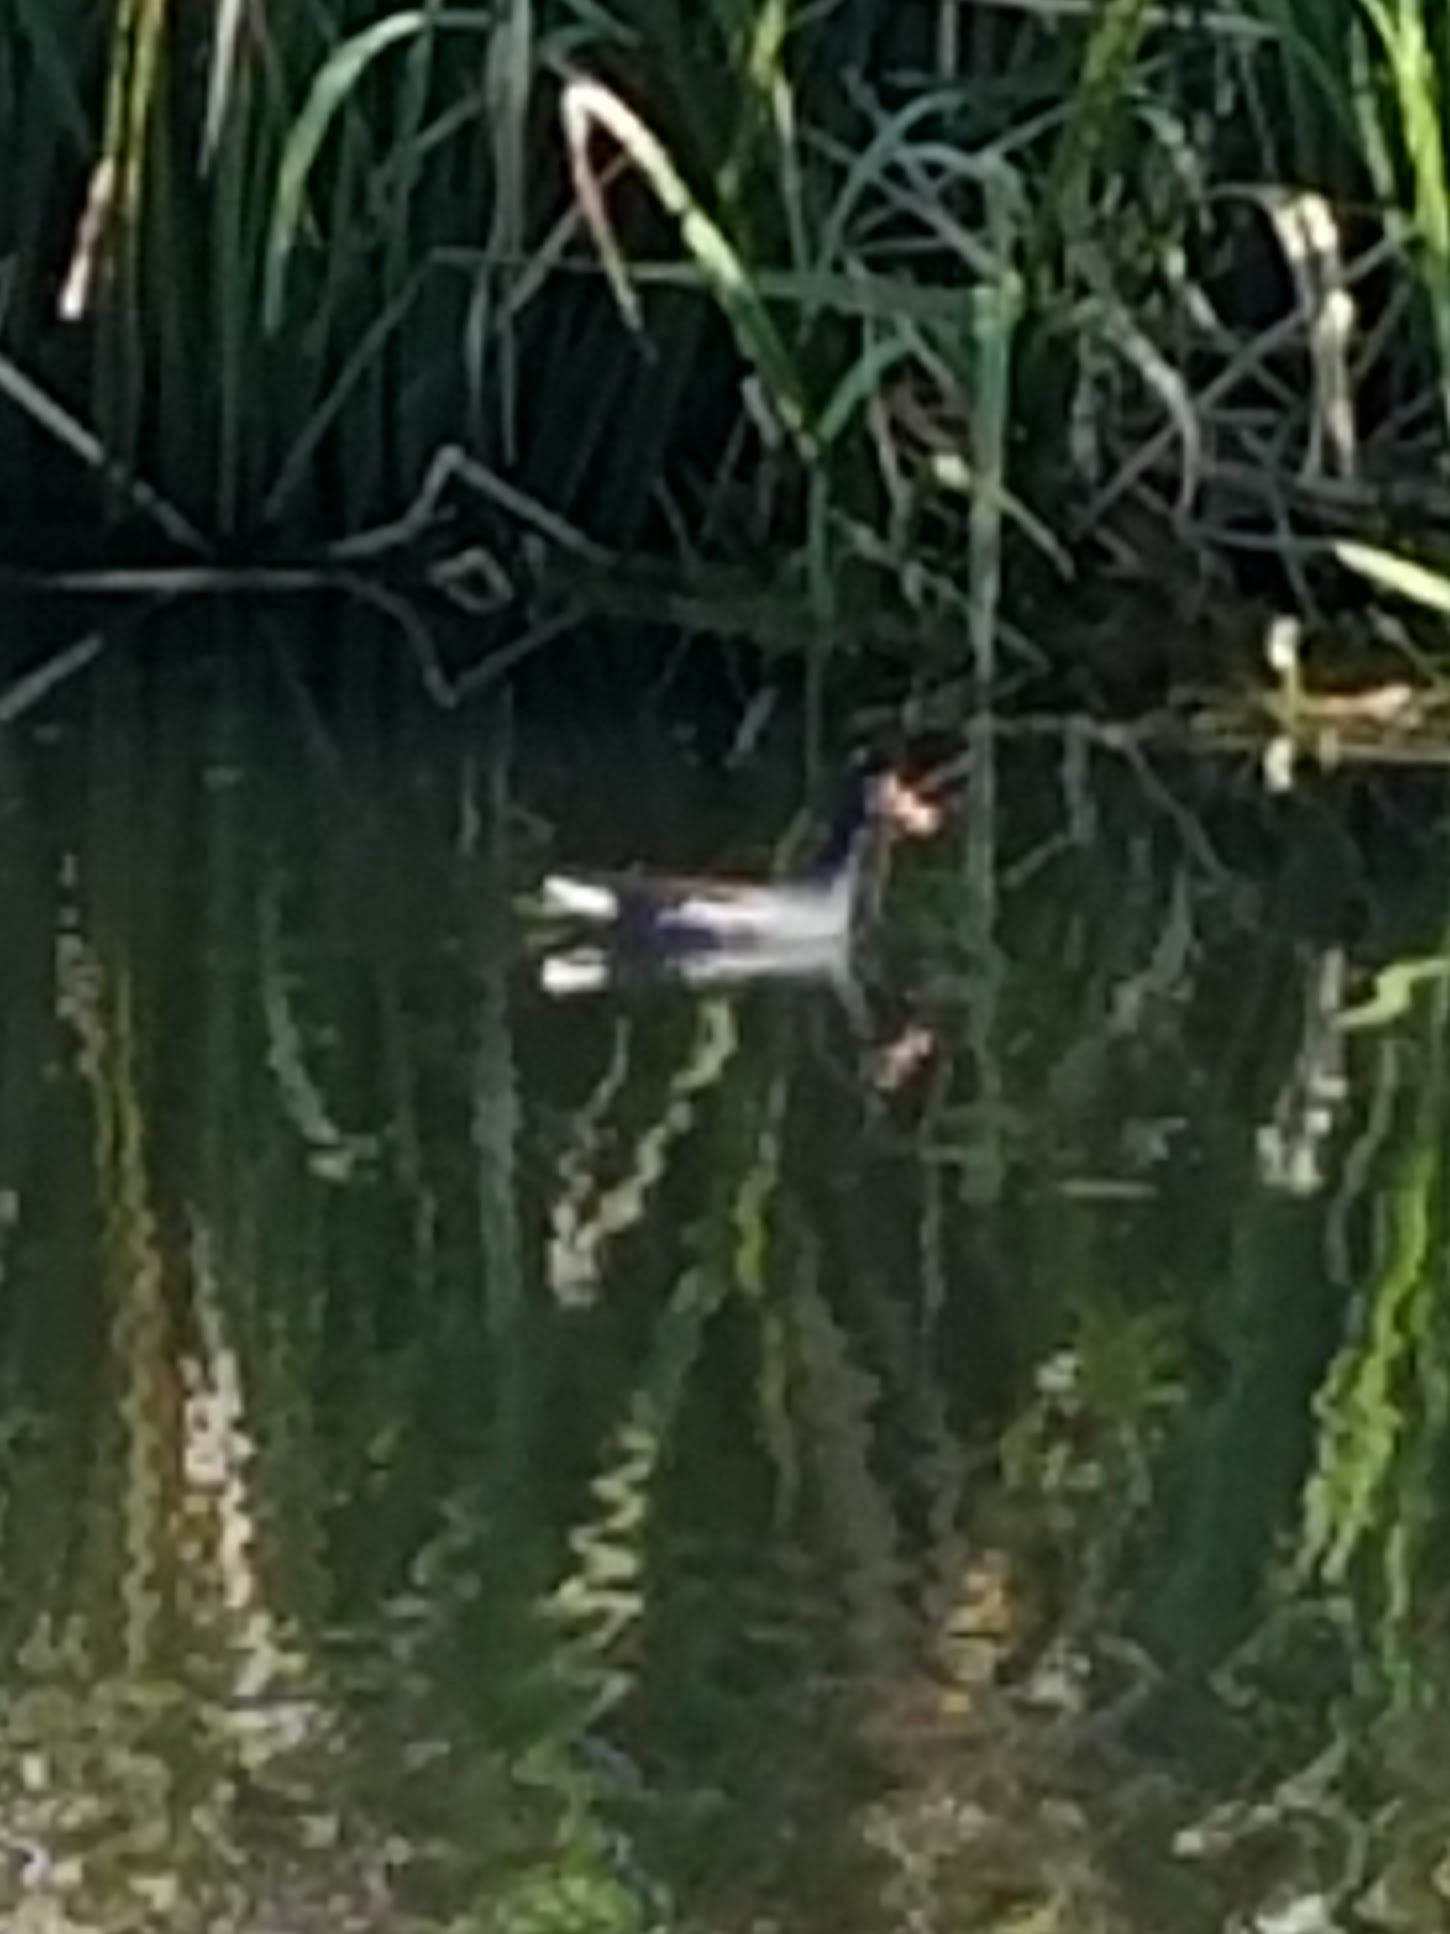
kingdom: Animalia
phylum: Chordata
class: Aves
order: Gruiformes
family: Rallidae
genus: Gallinula
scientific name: Gallinula chloropus
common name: Common moorhen
